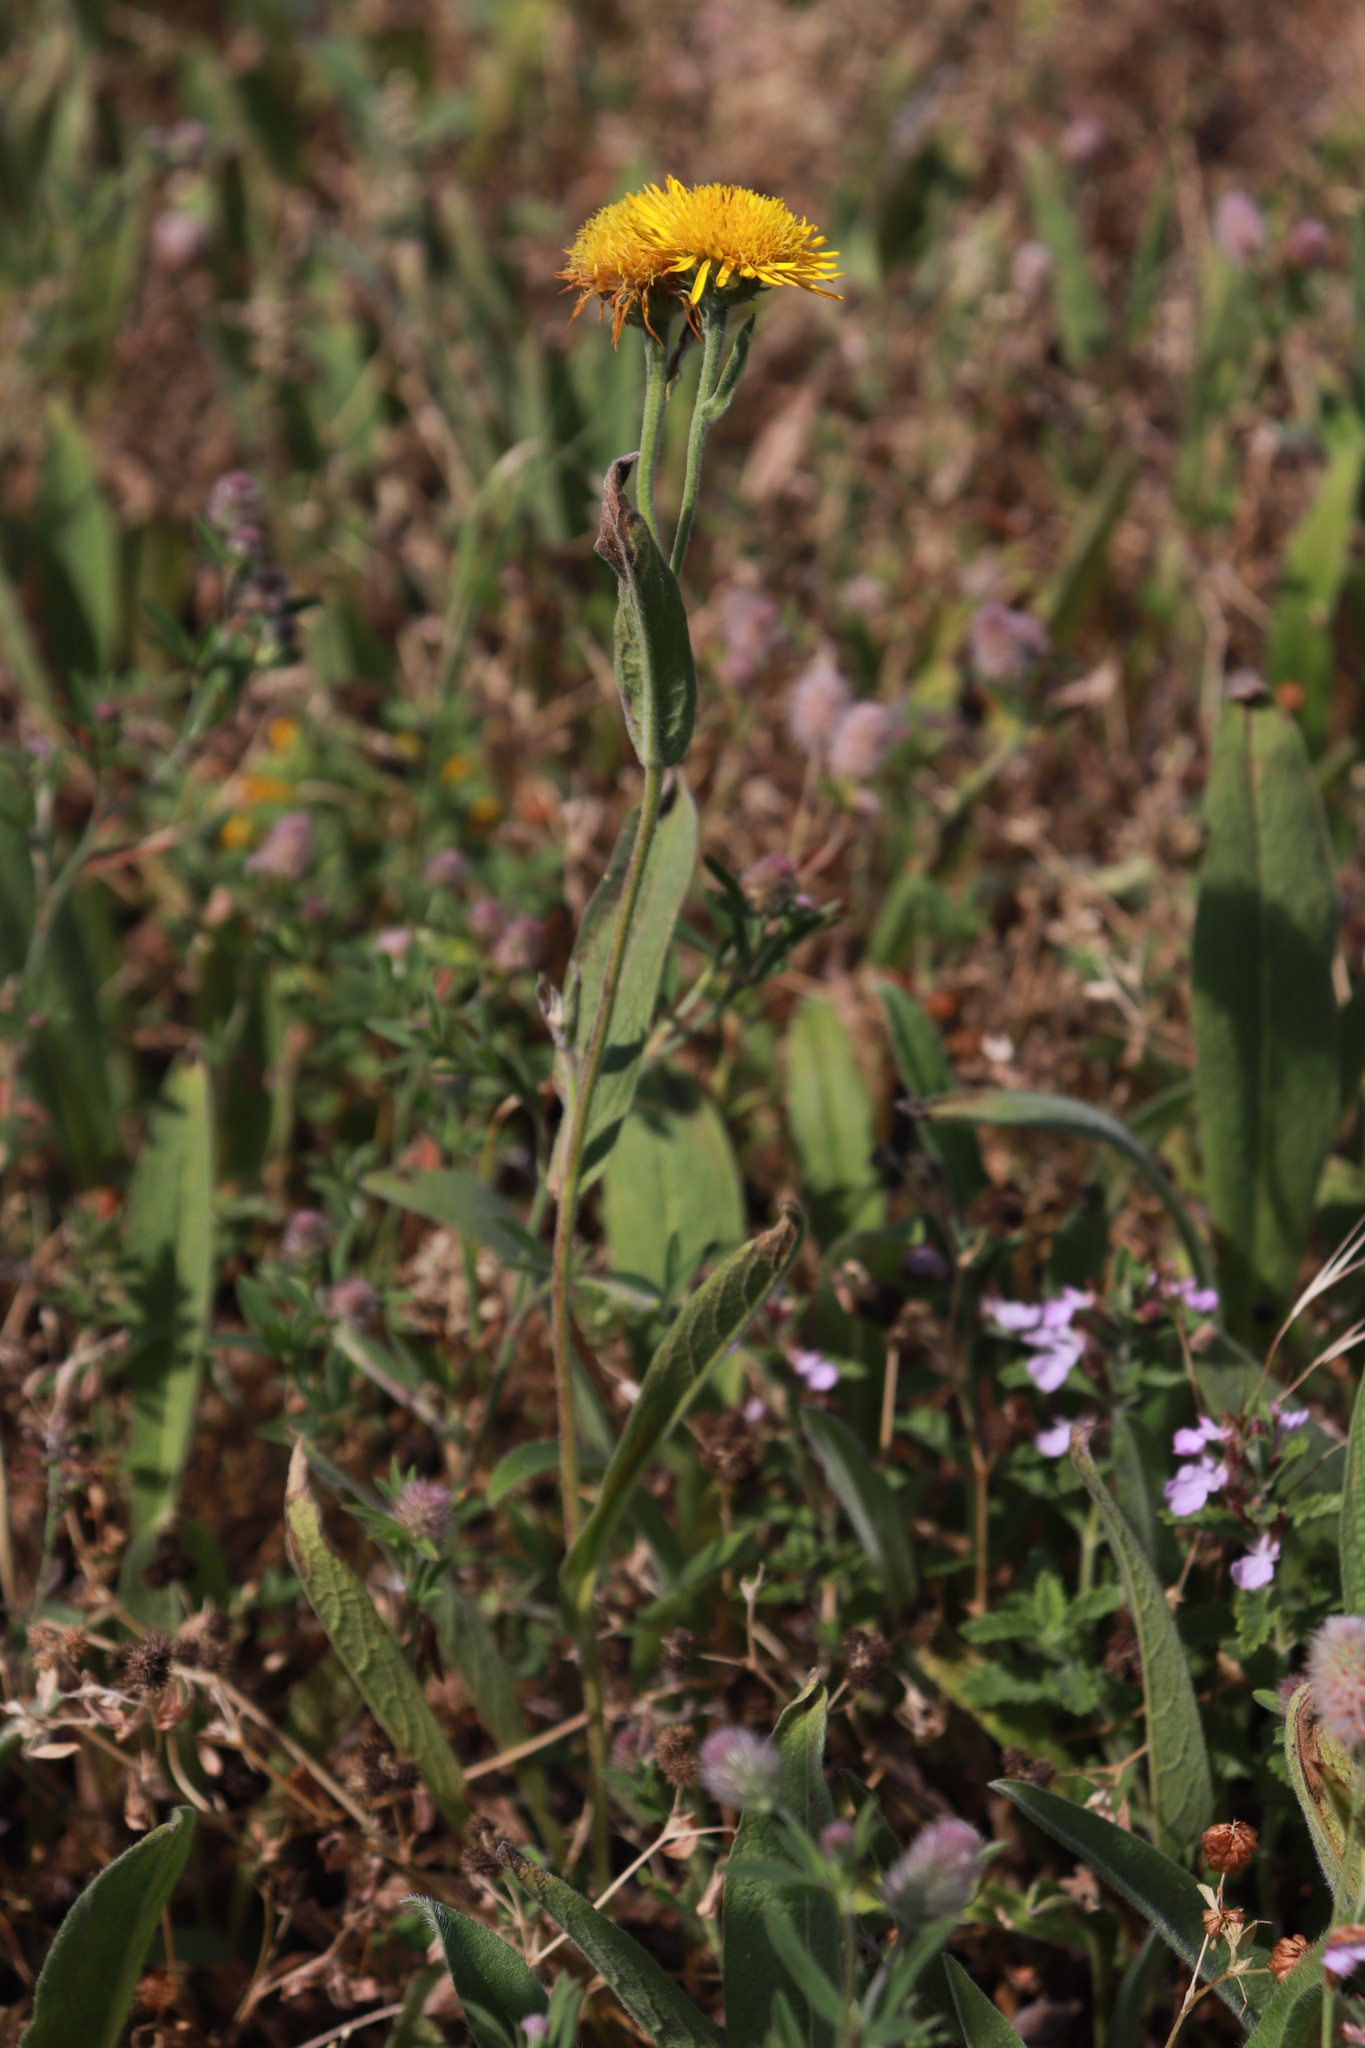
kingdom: Plantae
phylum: Tracheophyta
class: Magnoliopsida
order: Asterales
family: Asteraceae
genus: Pentanema
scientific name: Pentanema oculus-christi
